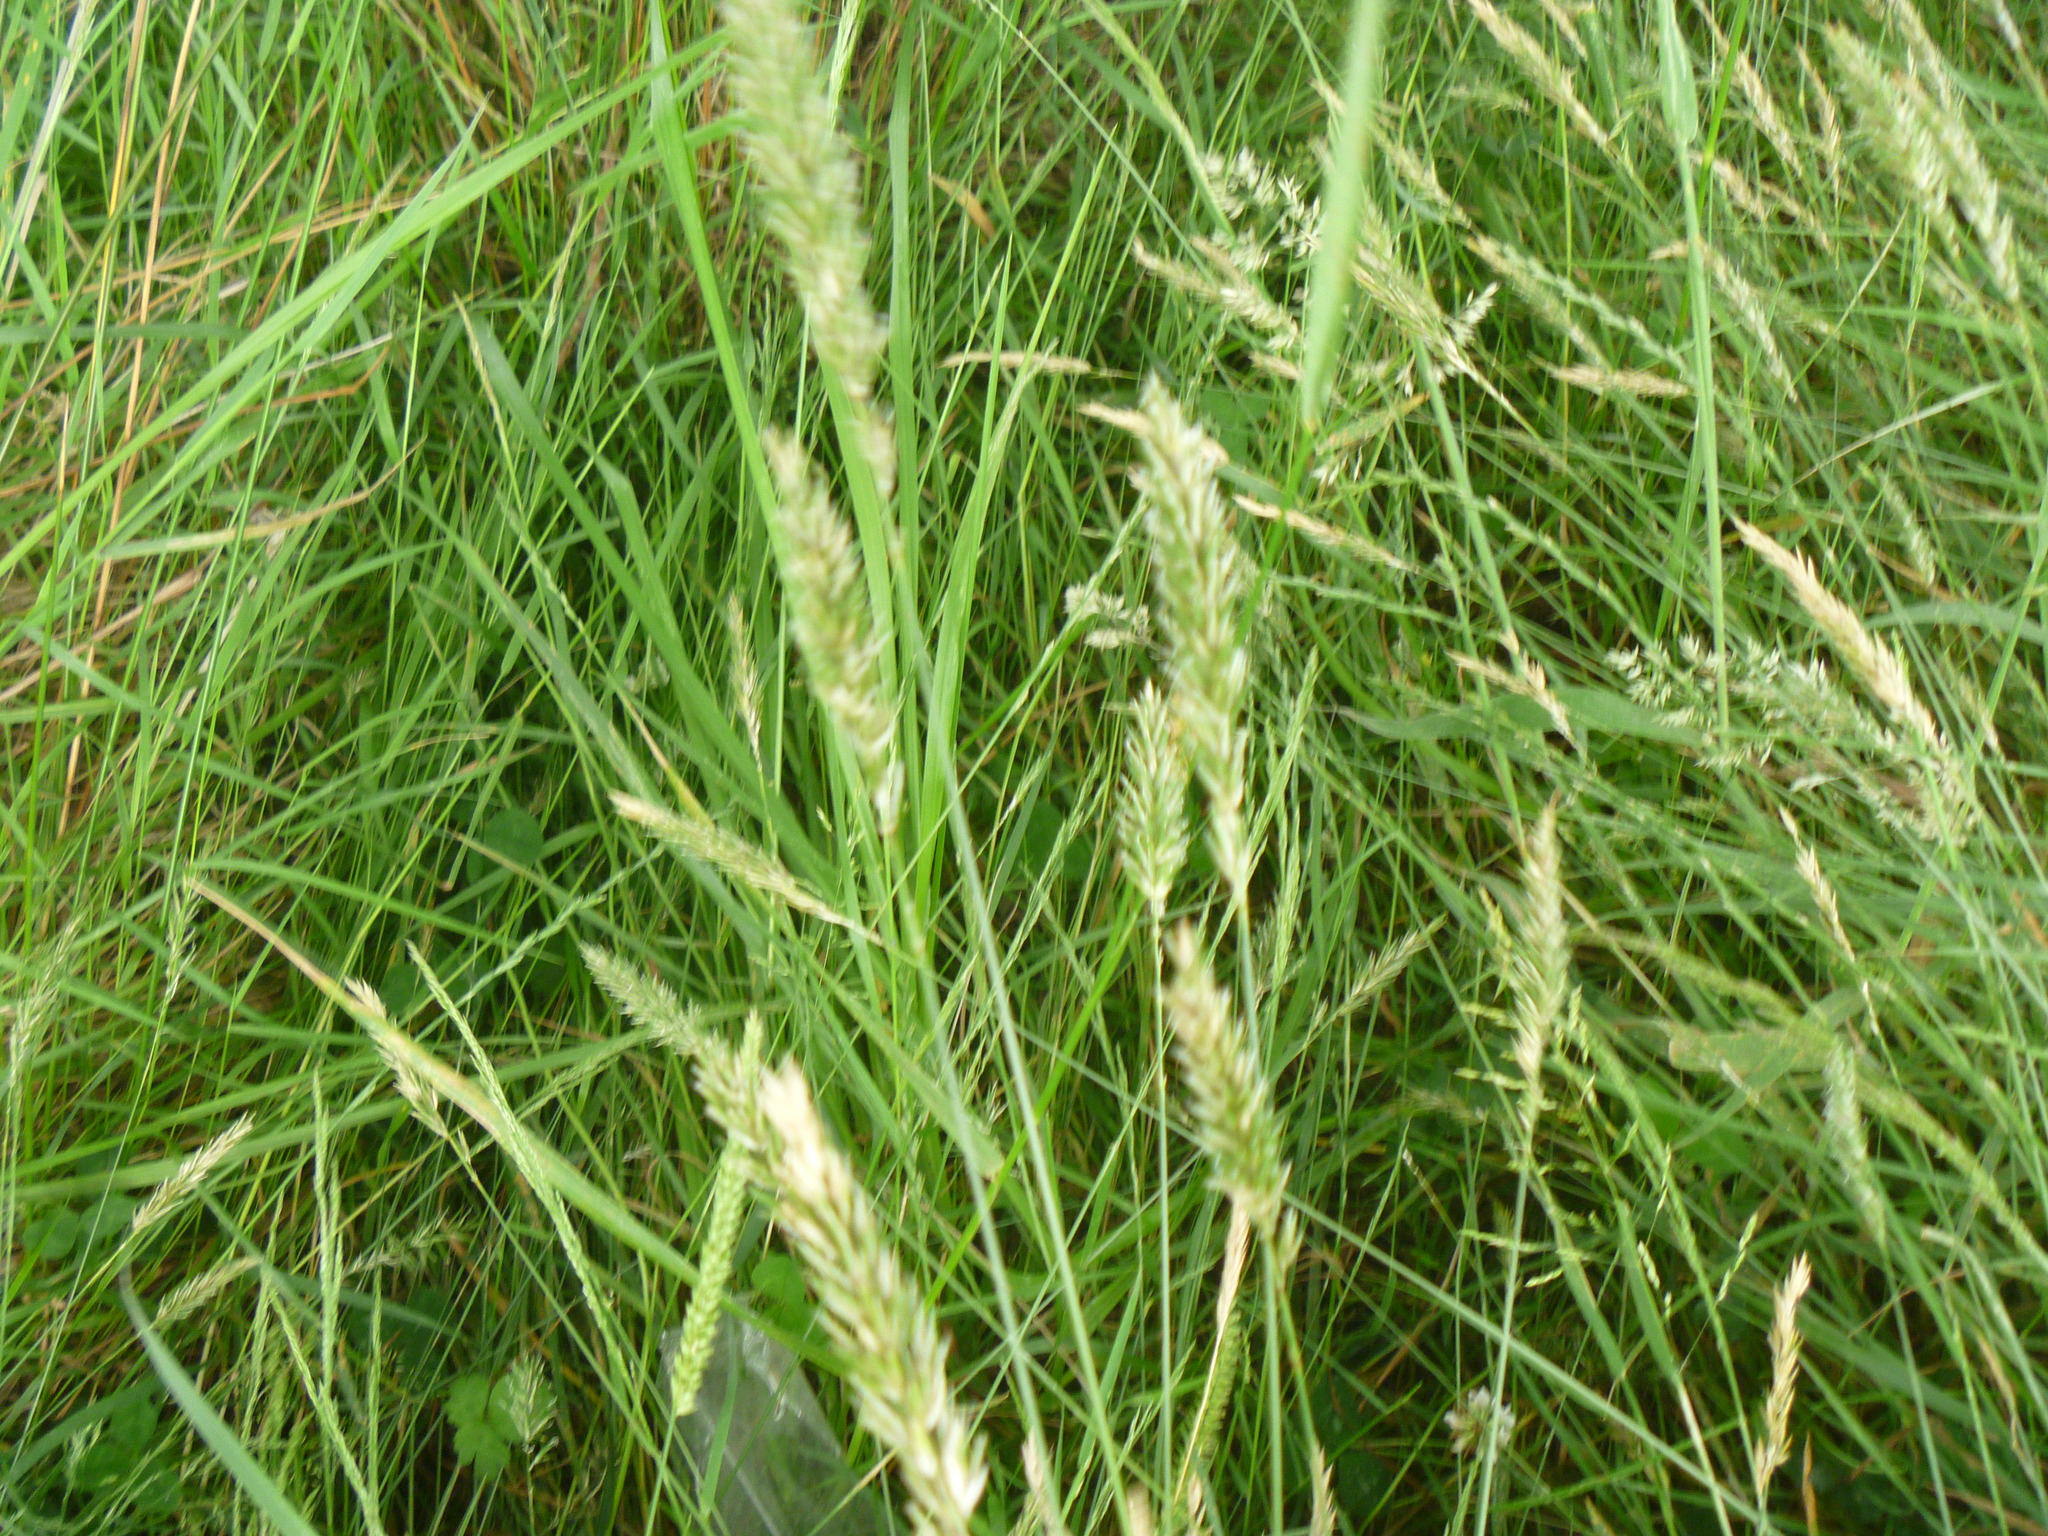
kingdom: Plantae
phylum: Tracheophyta
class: Liliopsida
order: Poales
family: Poaceae
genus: Anthoxanthum
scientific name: Anthoxanthum odoratum
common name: Sweet vernalgrass
